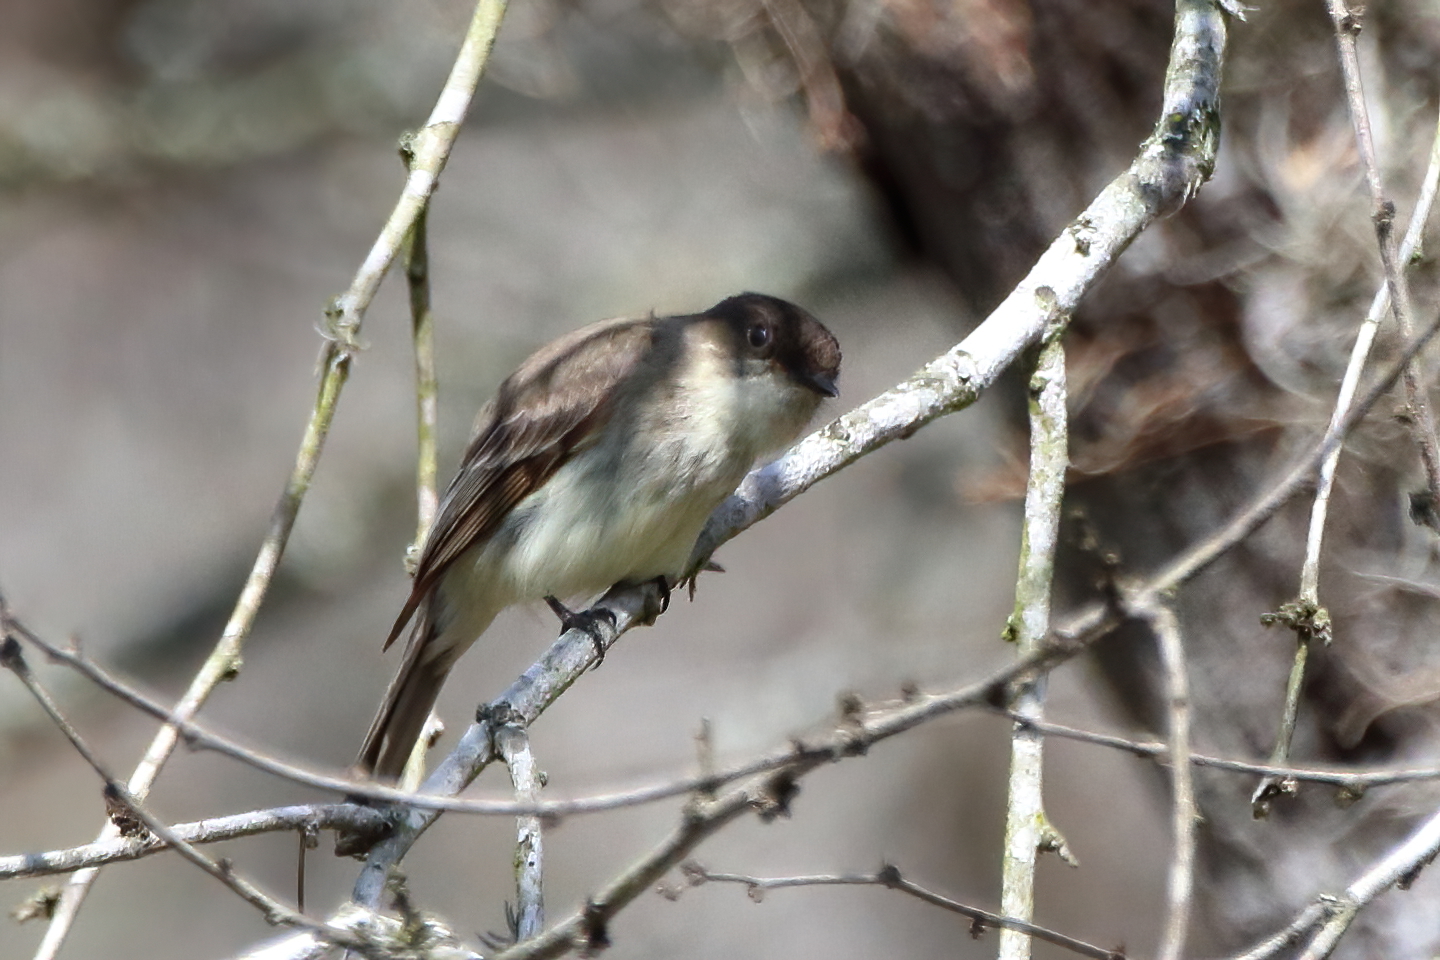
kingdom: Animalia
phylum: Chordata
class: Aves
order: Passeriformes
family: Tyrannidae
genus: Sayornis
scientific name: Sayornis phoebe
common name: Eastern phoebe
